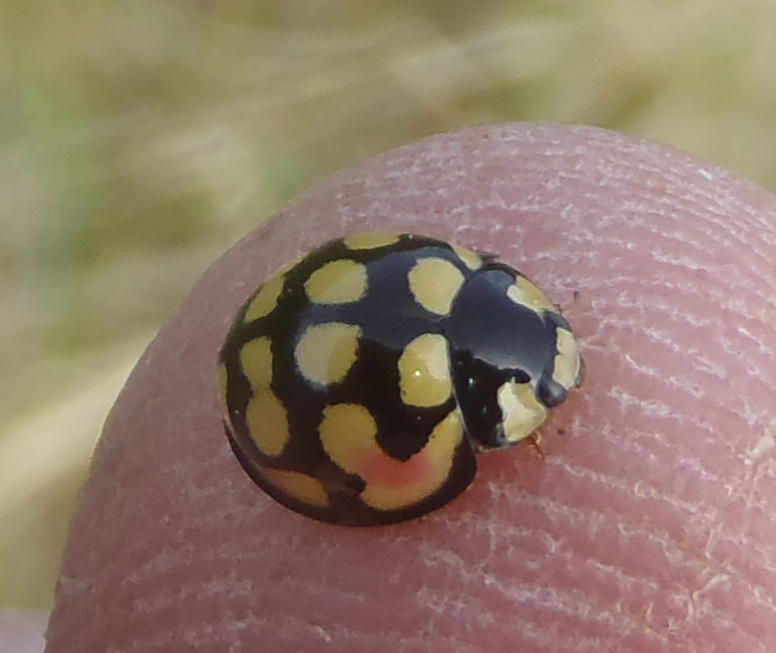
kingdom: Animalia
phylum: Arthropoda
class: Insecta
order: Coleoptera
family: Coccinellidae
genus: Cheilomenes
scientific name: Cheilomenes sulphurea
